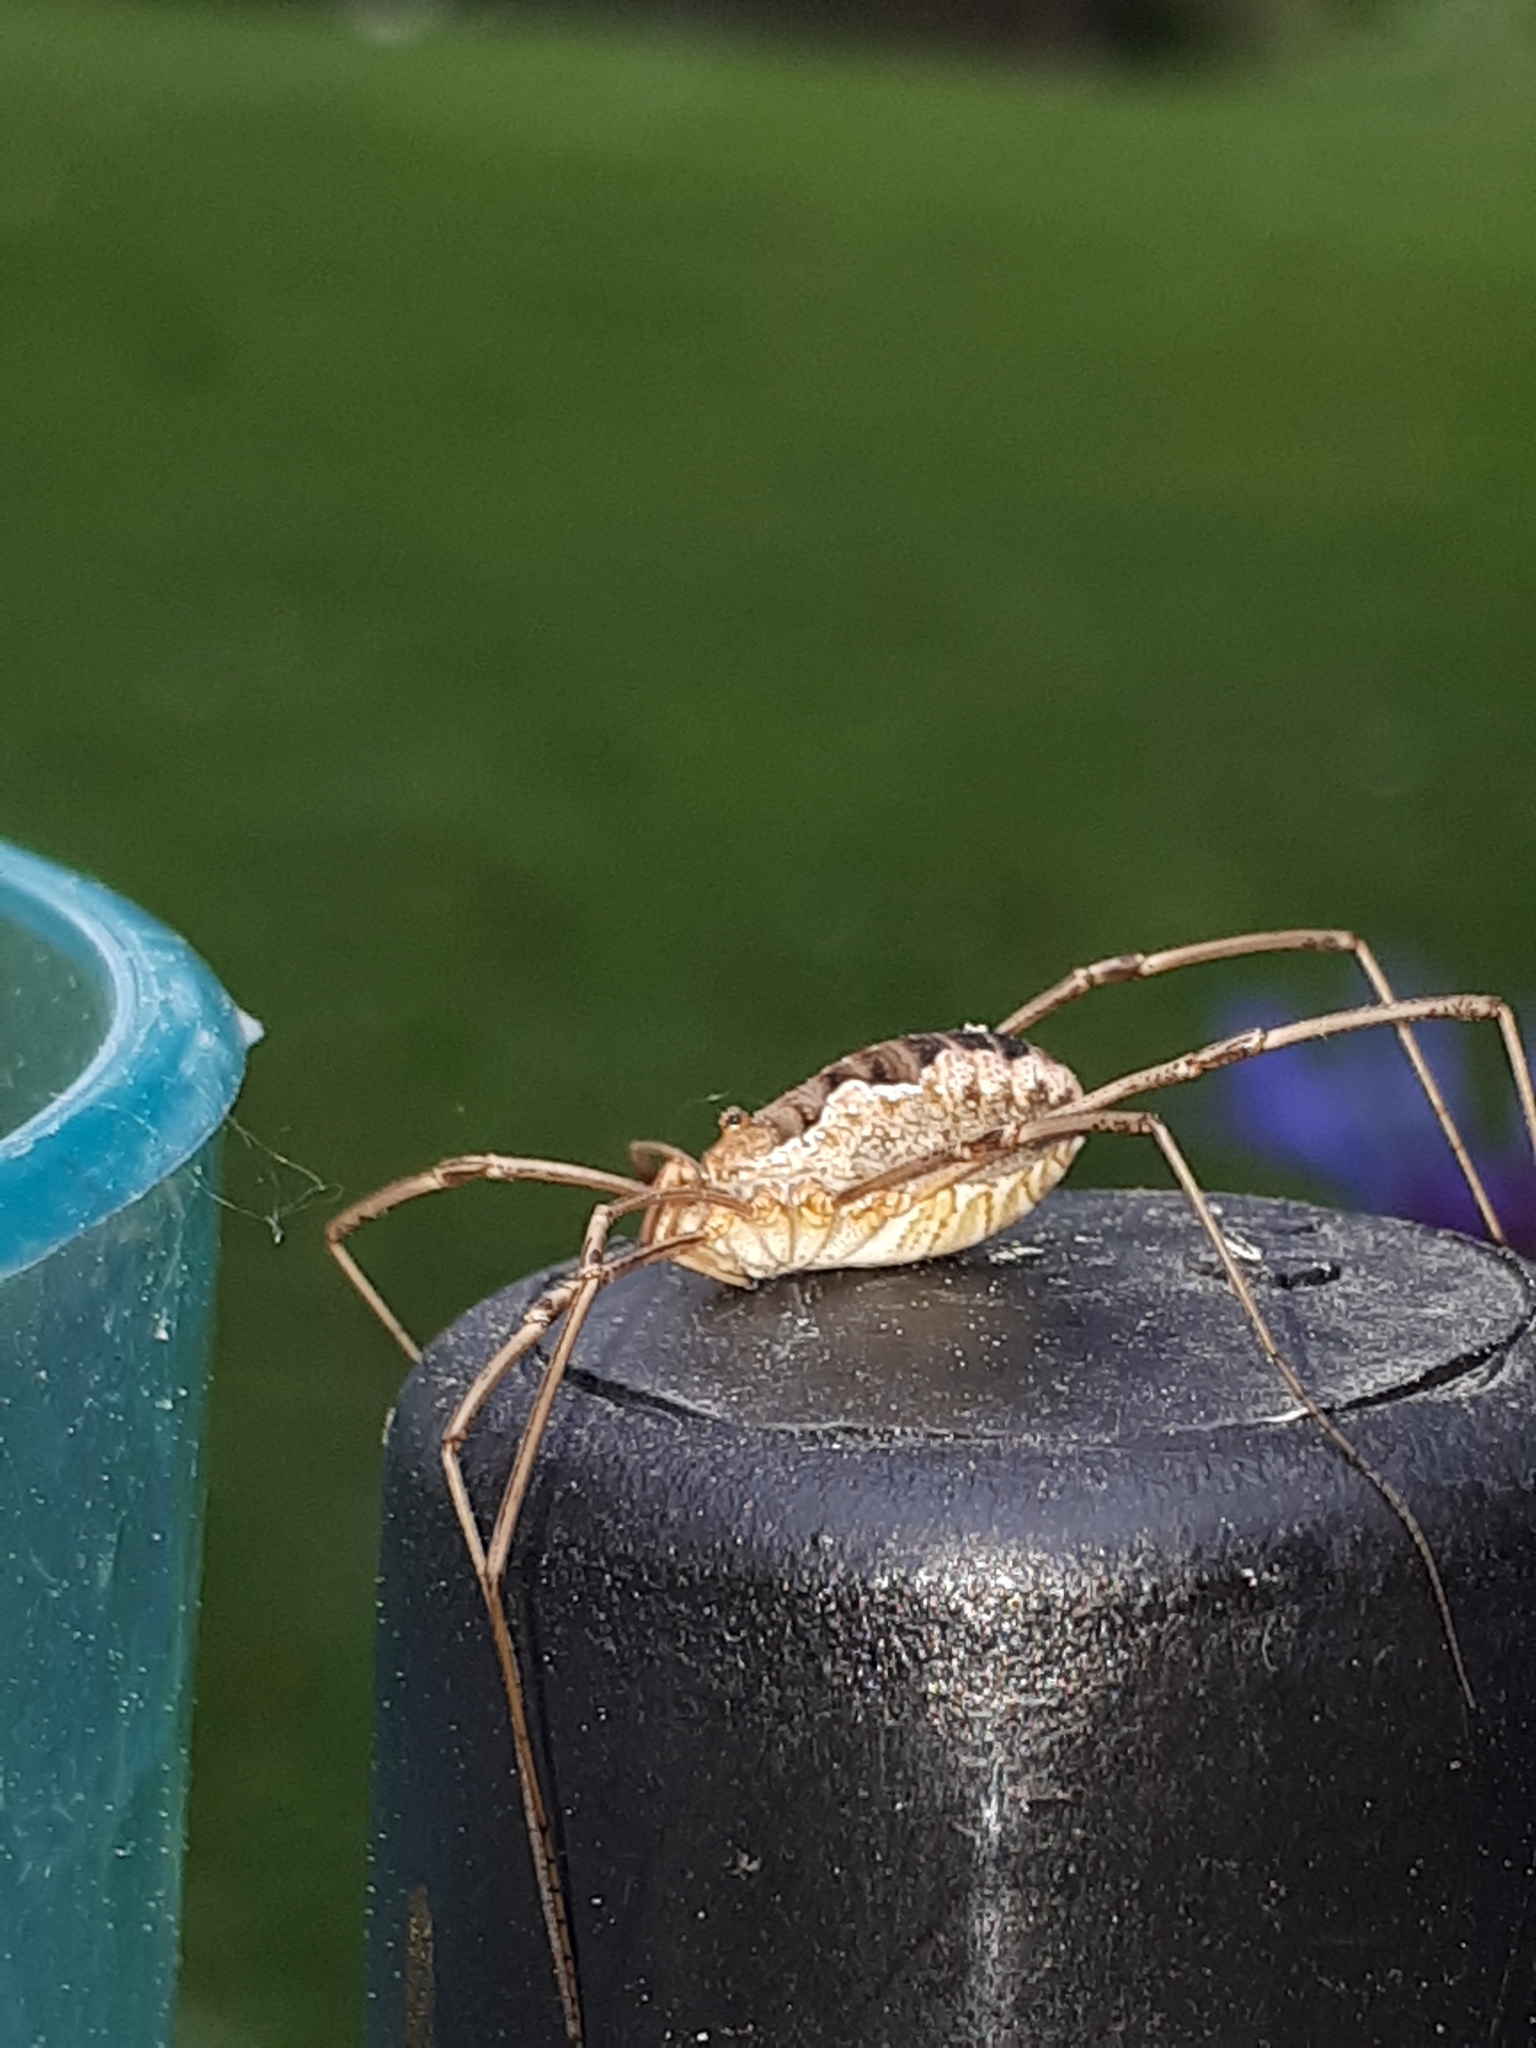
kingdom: Animalia
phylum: Arthropoda
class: Arachnida
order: Opiliones
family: Phalangiidae
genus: Phalangium
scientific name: Phalangium opilio
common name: Daddy longleg
